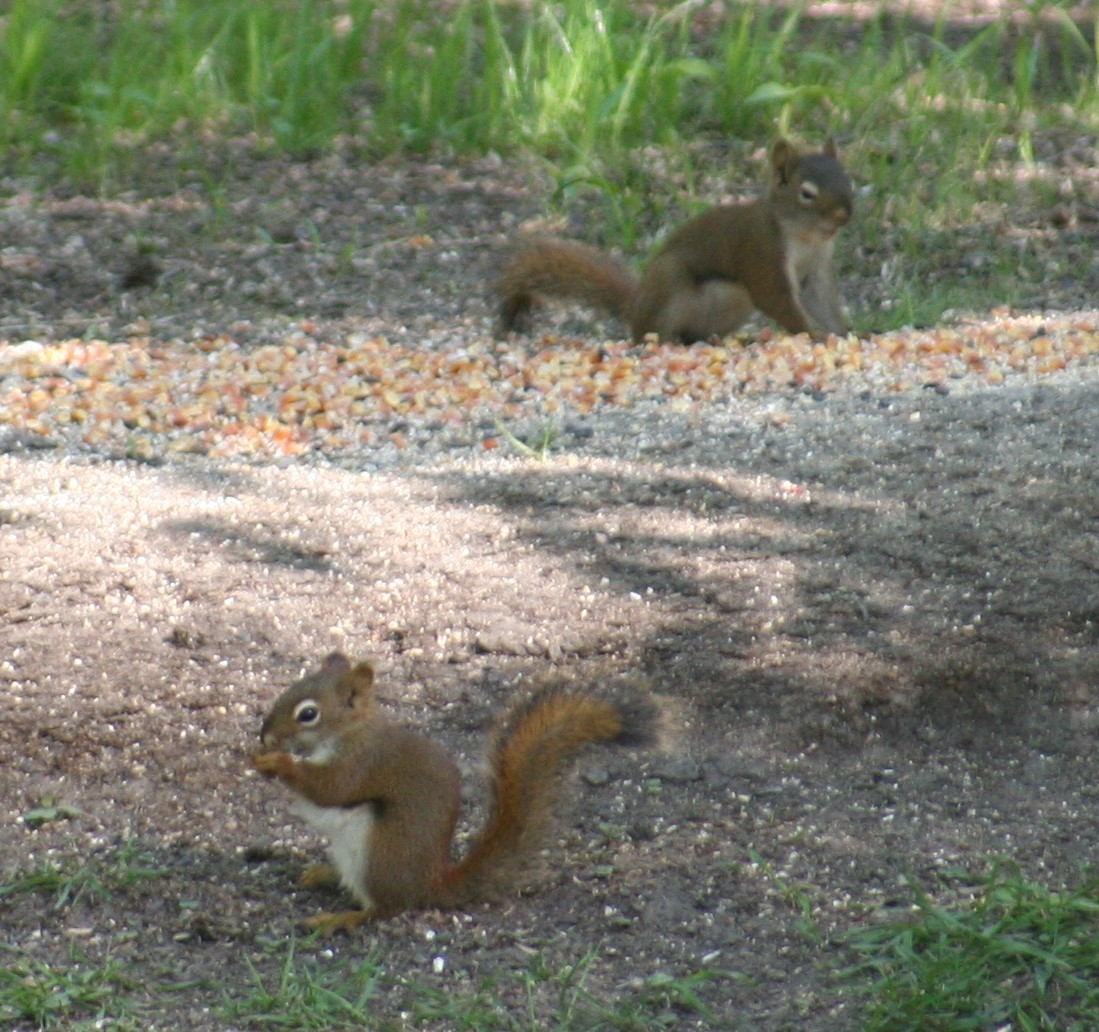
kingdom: Animalia
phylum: Chordata
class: Mammalia
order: Rodentia
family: Sciuridae
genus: Tamiasciurus
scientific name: Tamiasciurus hudsonicus
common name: Red squirrel
